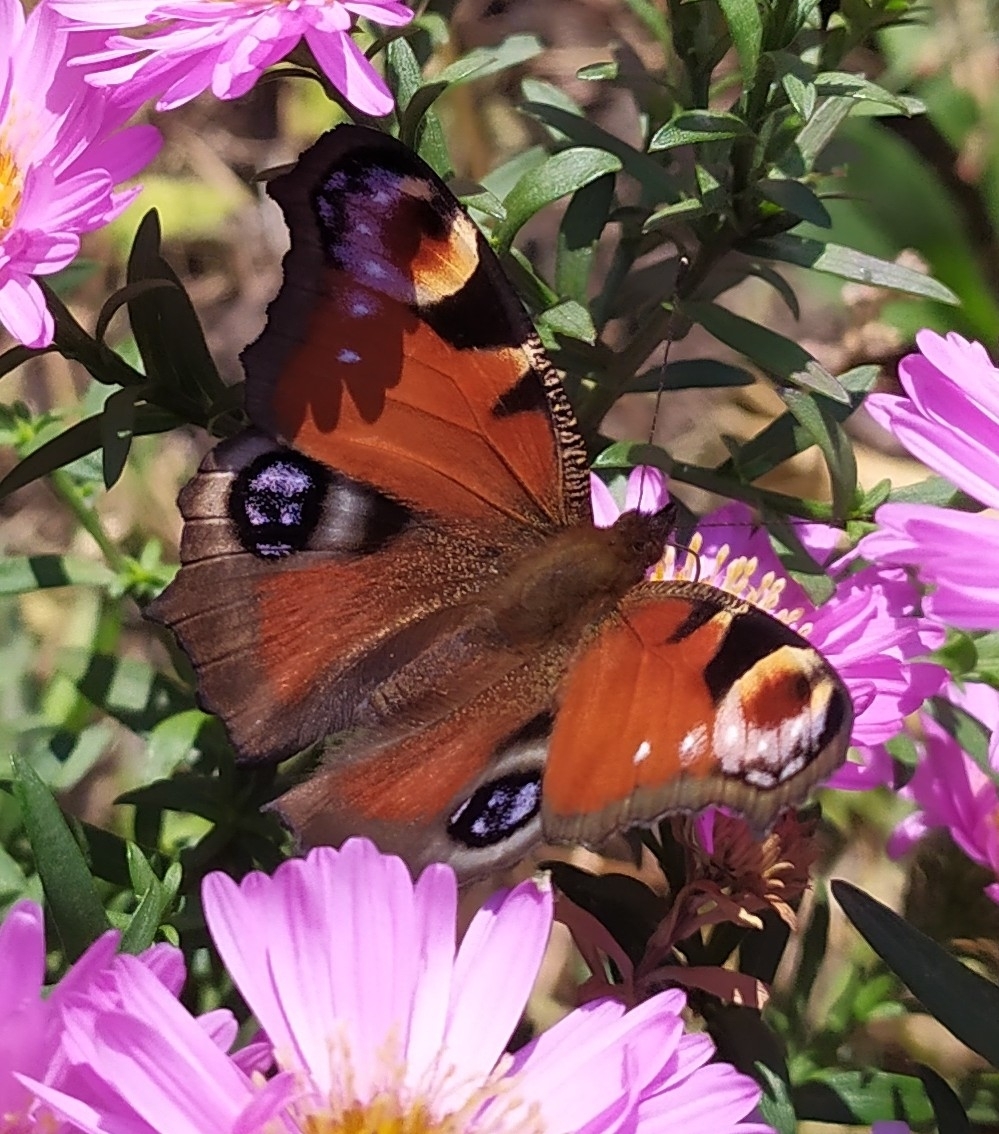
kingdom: Animalia
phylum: Arthropoda
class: Insecta
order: Lepidoptera
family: Nymphalidae
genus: Aglais
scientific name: Aglais io
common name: Peacock
